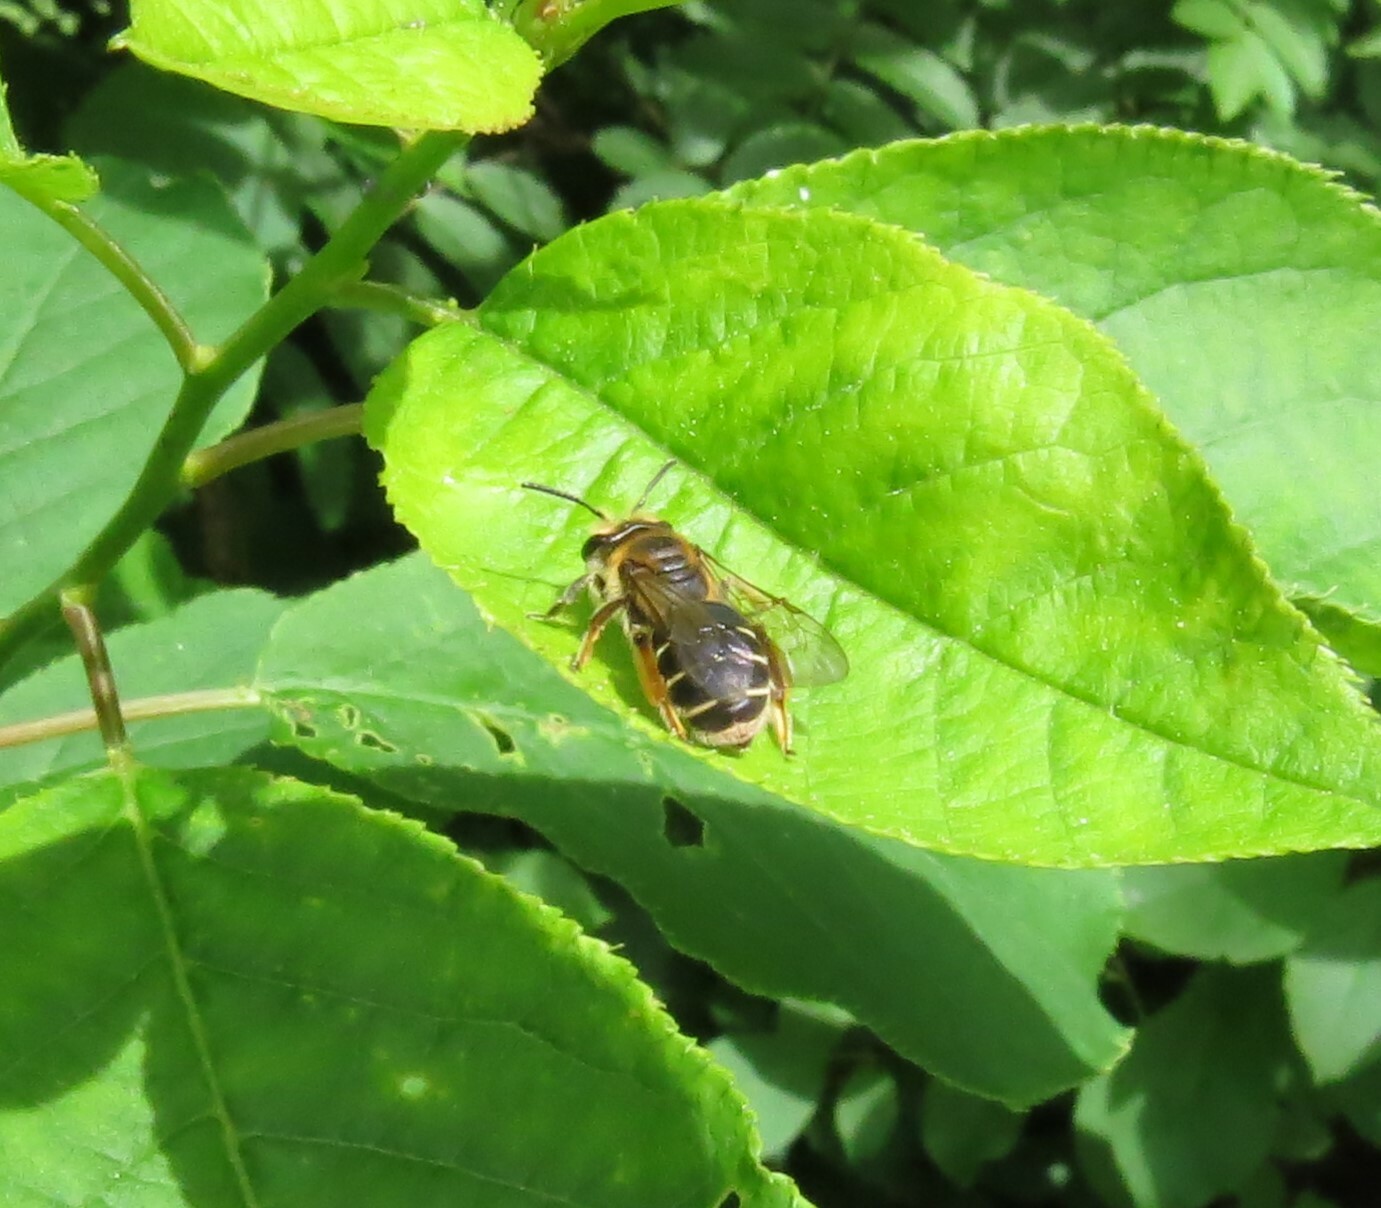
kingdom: Animalia
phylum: Arthropoda
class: Insecta
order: Hymenoptera
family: Andrenidae
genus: Andrena
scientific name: Andrena wilkella
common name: Wilke's mining bee
